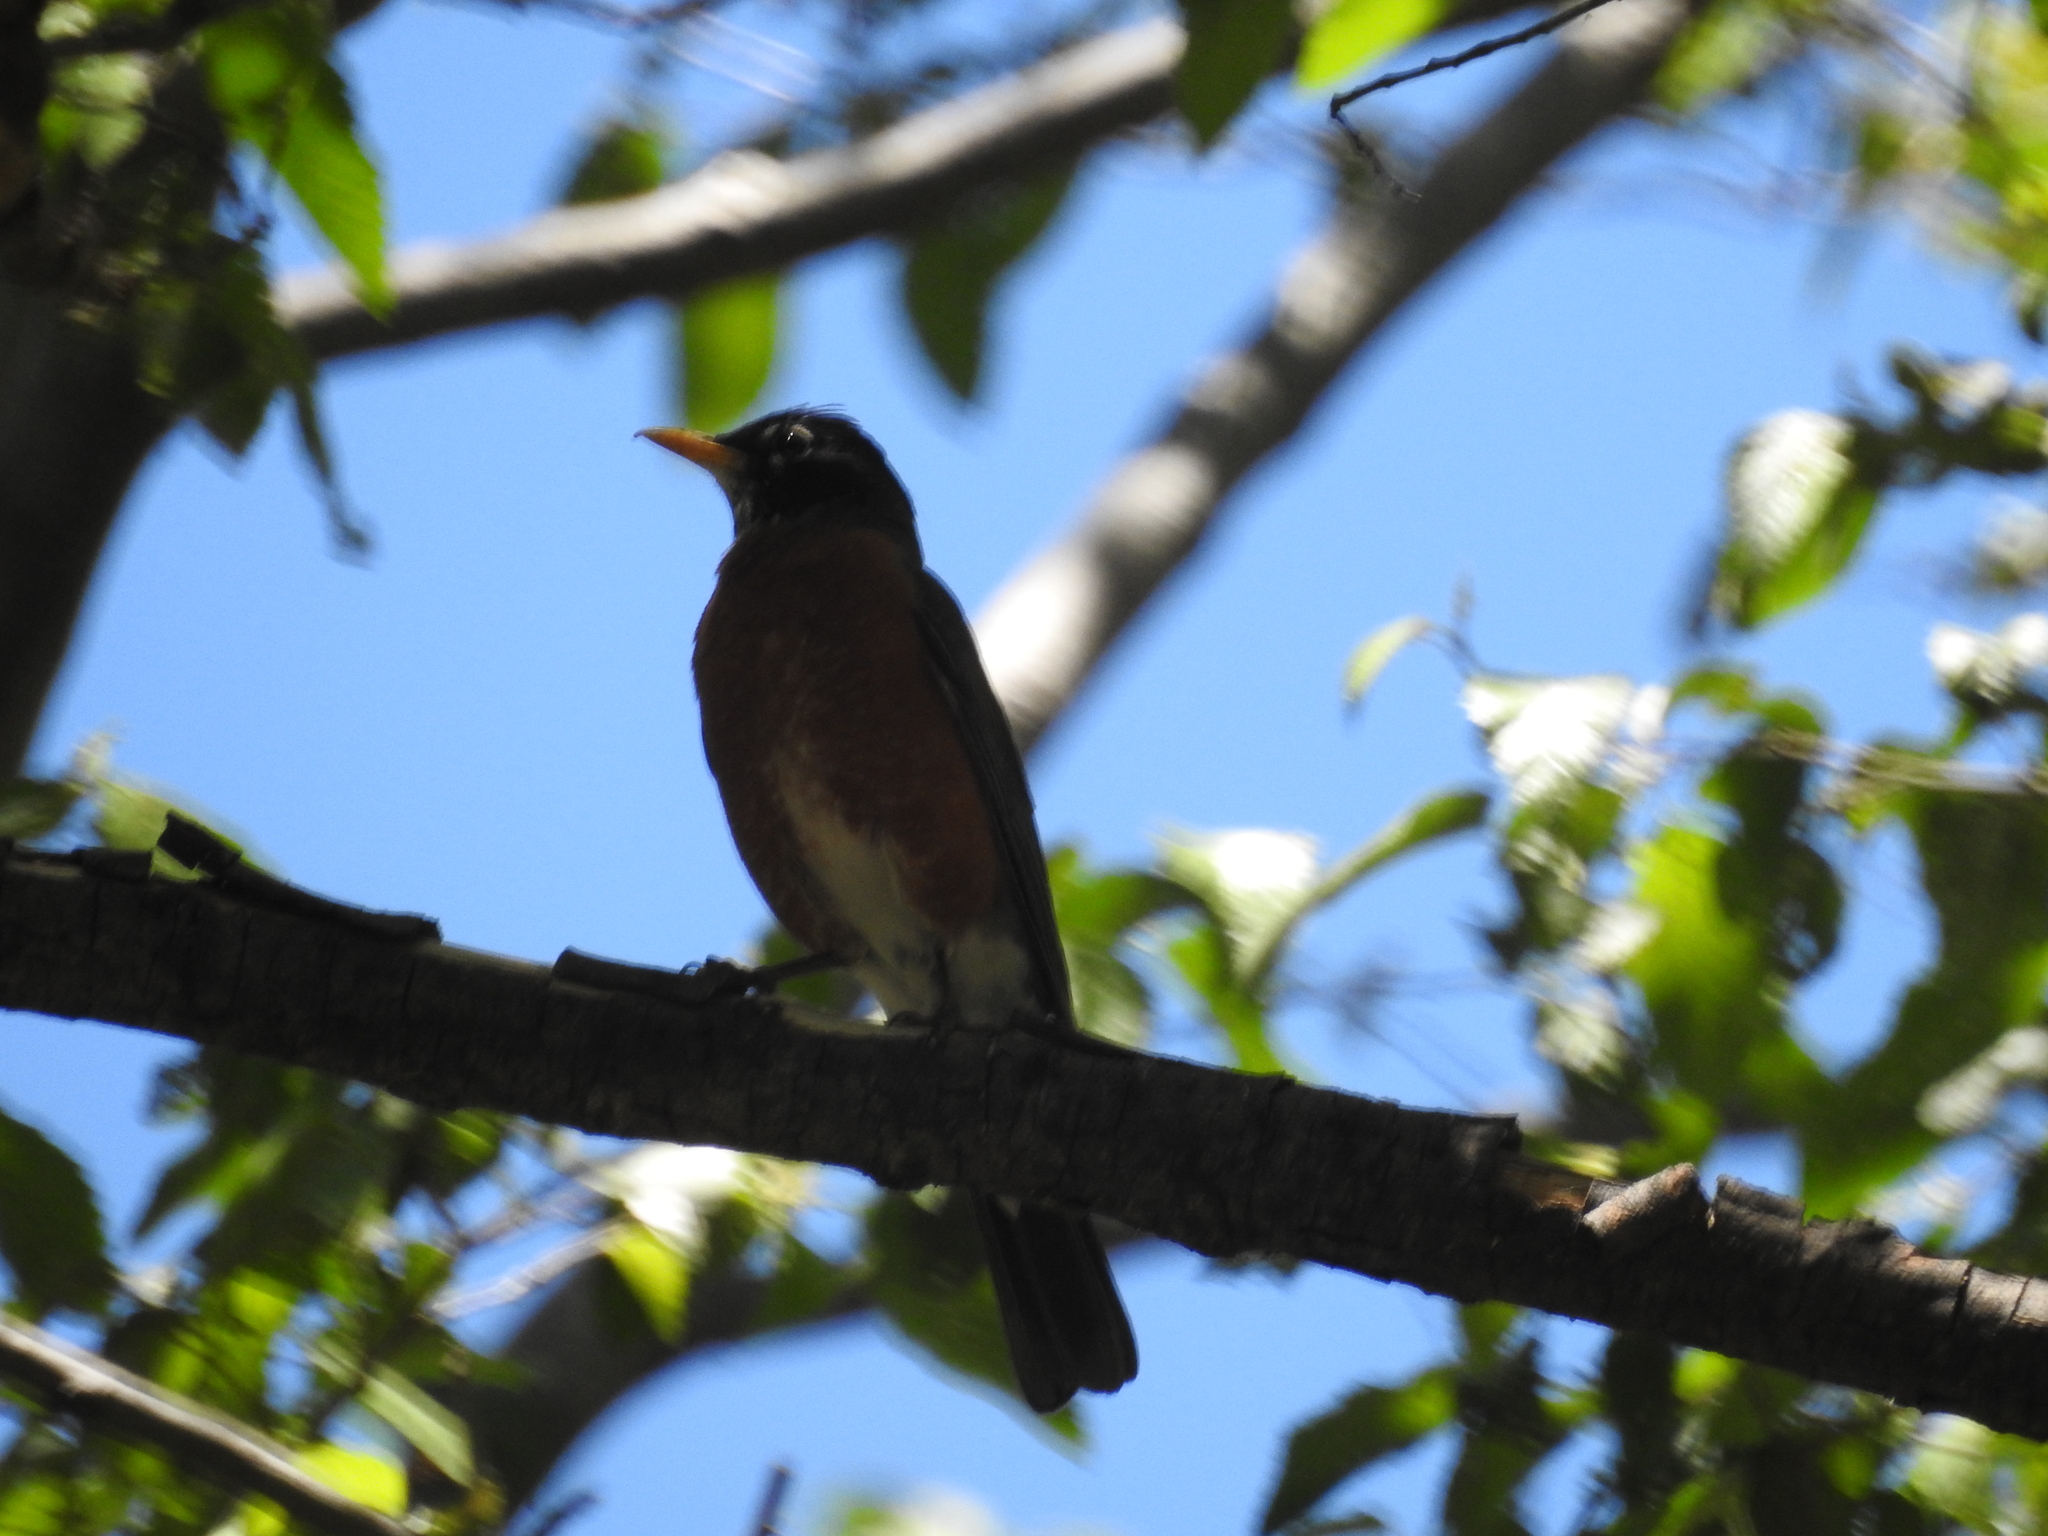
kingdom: Animalia
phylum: Chordata
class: Aves
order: Passeriformes
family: Turdidae
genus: Turdus
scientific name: Turdus migratorius
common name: American robin
